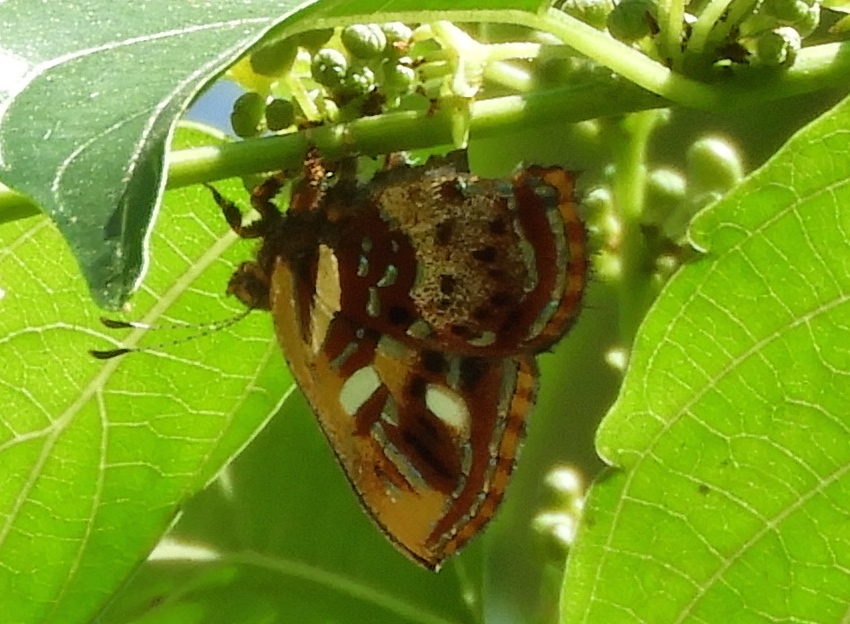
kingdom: Animalia
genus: Anteros
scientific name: Anteros carausius
